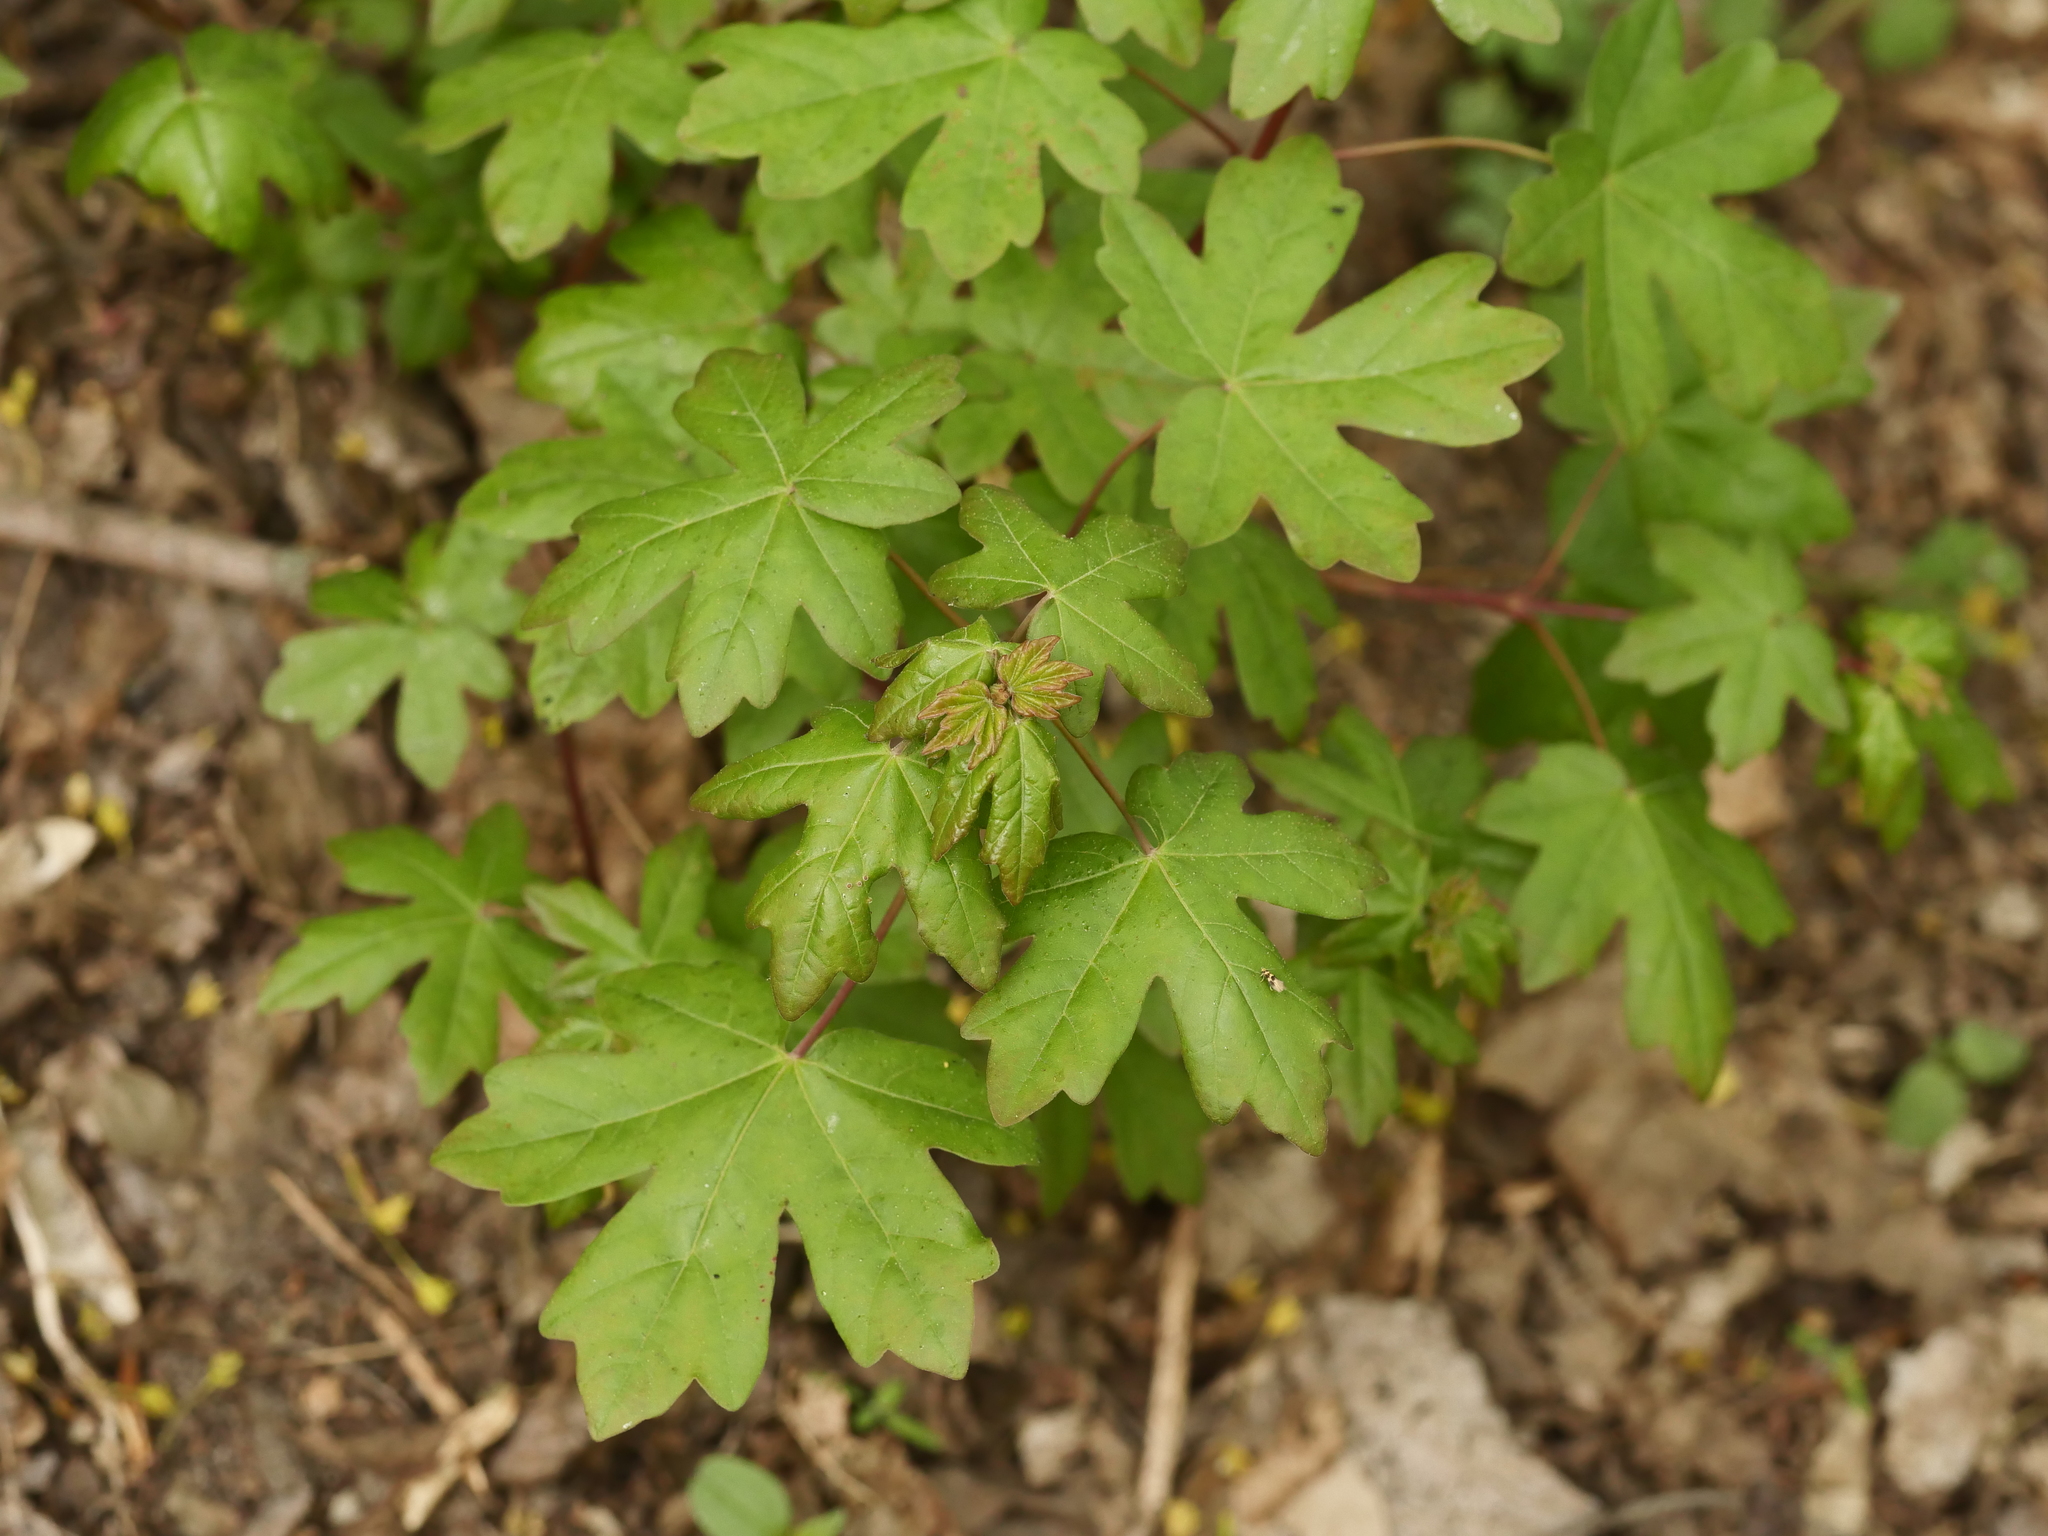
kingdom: Plantae
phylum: Tracheophyta
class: Magnoliopsida
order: Sapindales
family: Sapindaceae
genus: Acer
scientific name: Acer campestre
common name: Field maple
